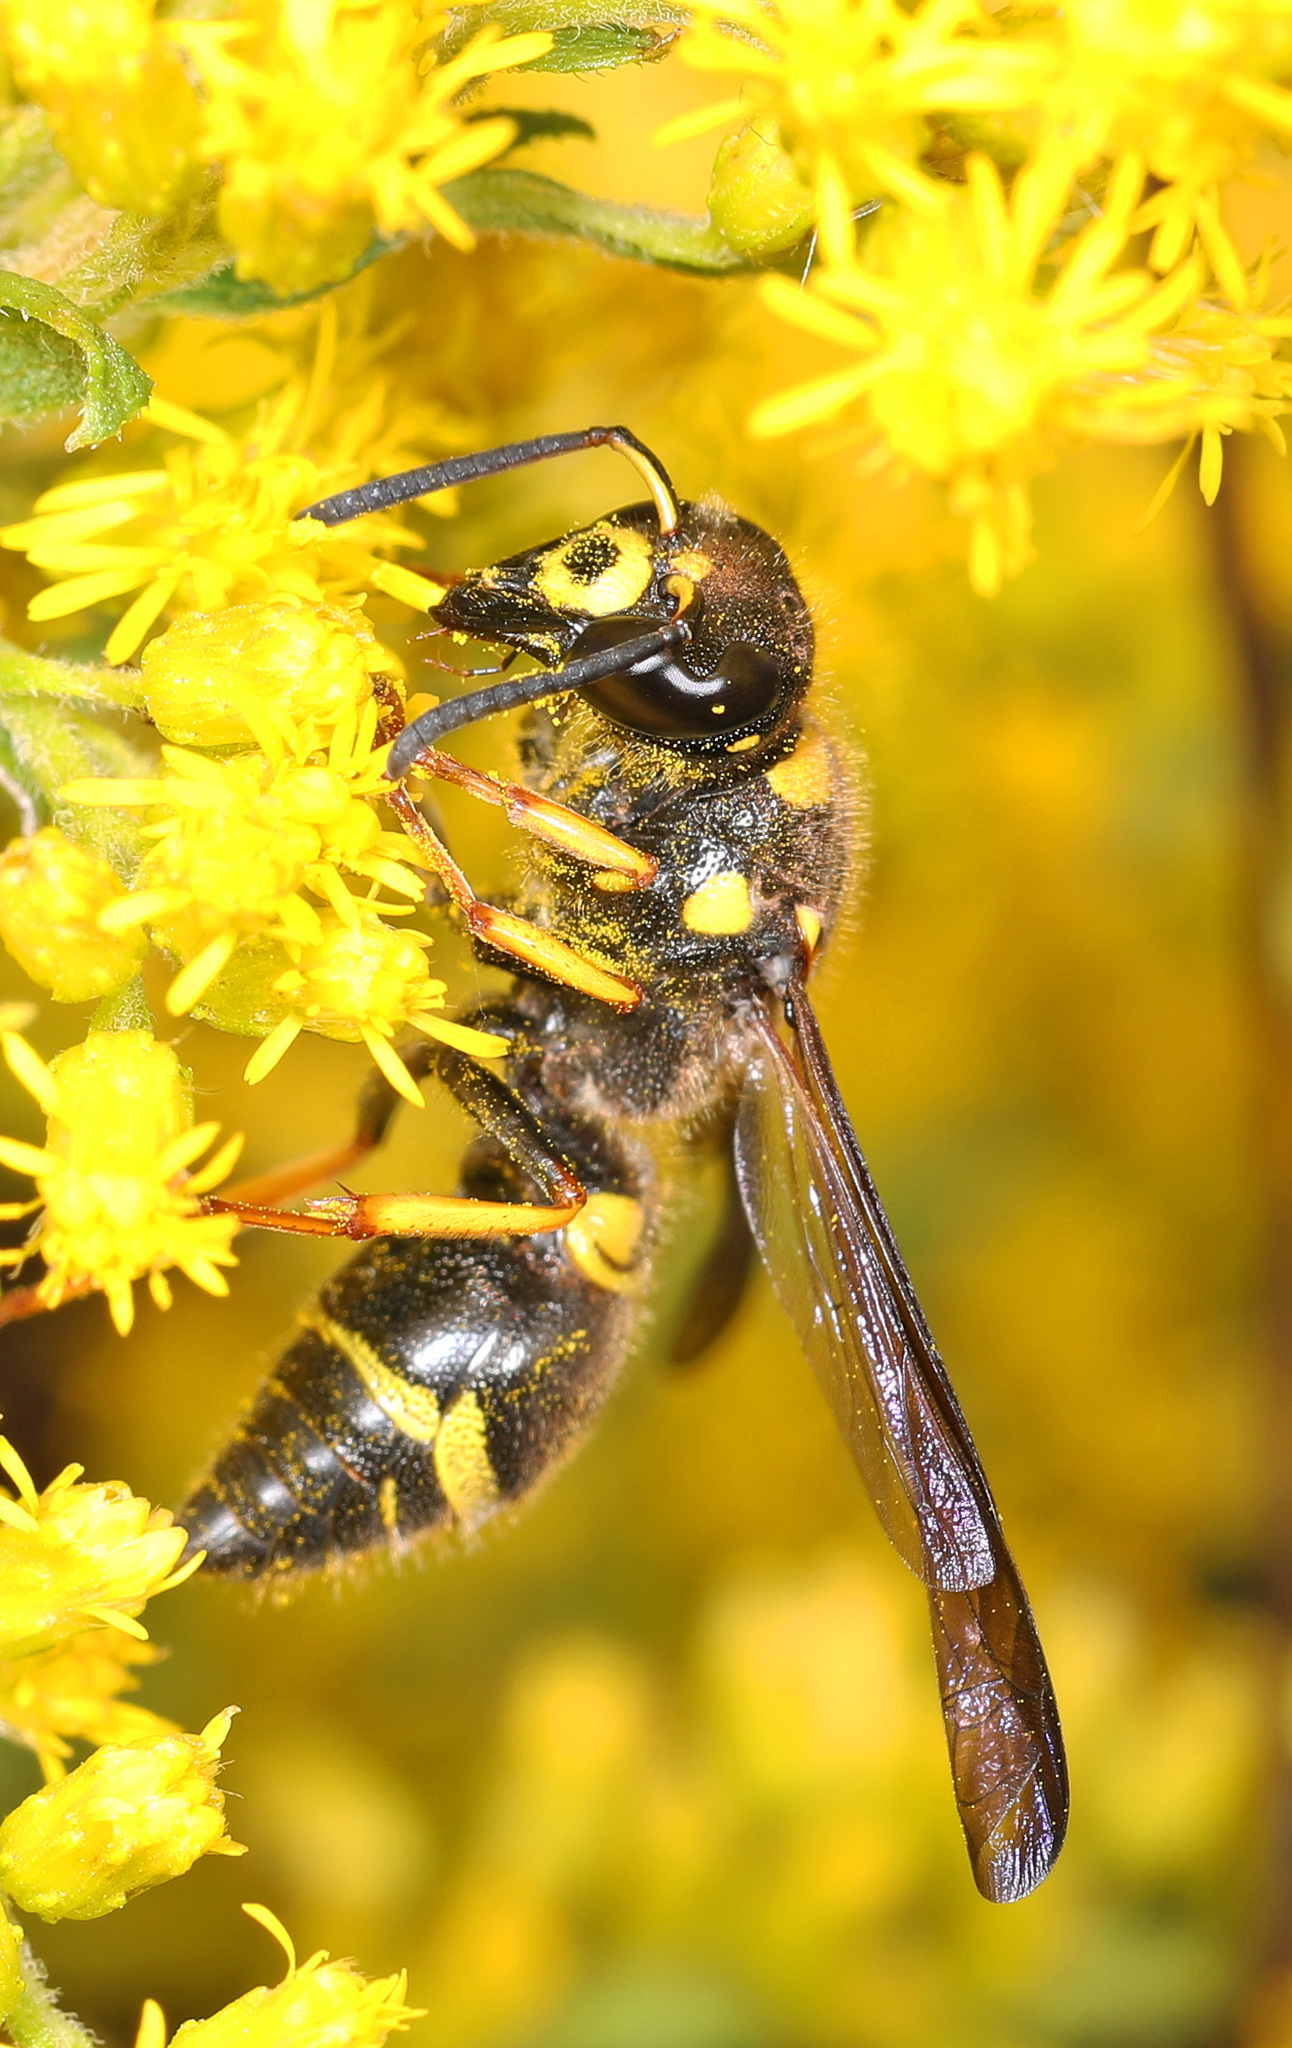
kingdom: Animalia
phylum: Arthropoda
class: Insecta
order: Hymenoptera
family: Vespidae
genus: Ancistrocerus
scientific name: Ancistrocerus campestris
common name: Smiling mason wasp
